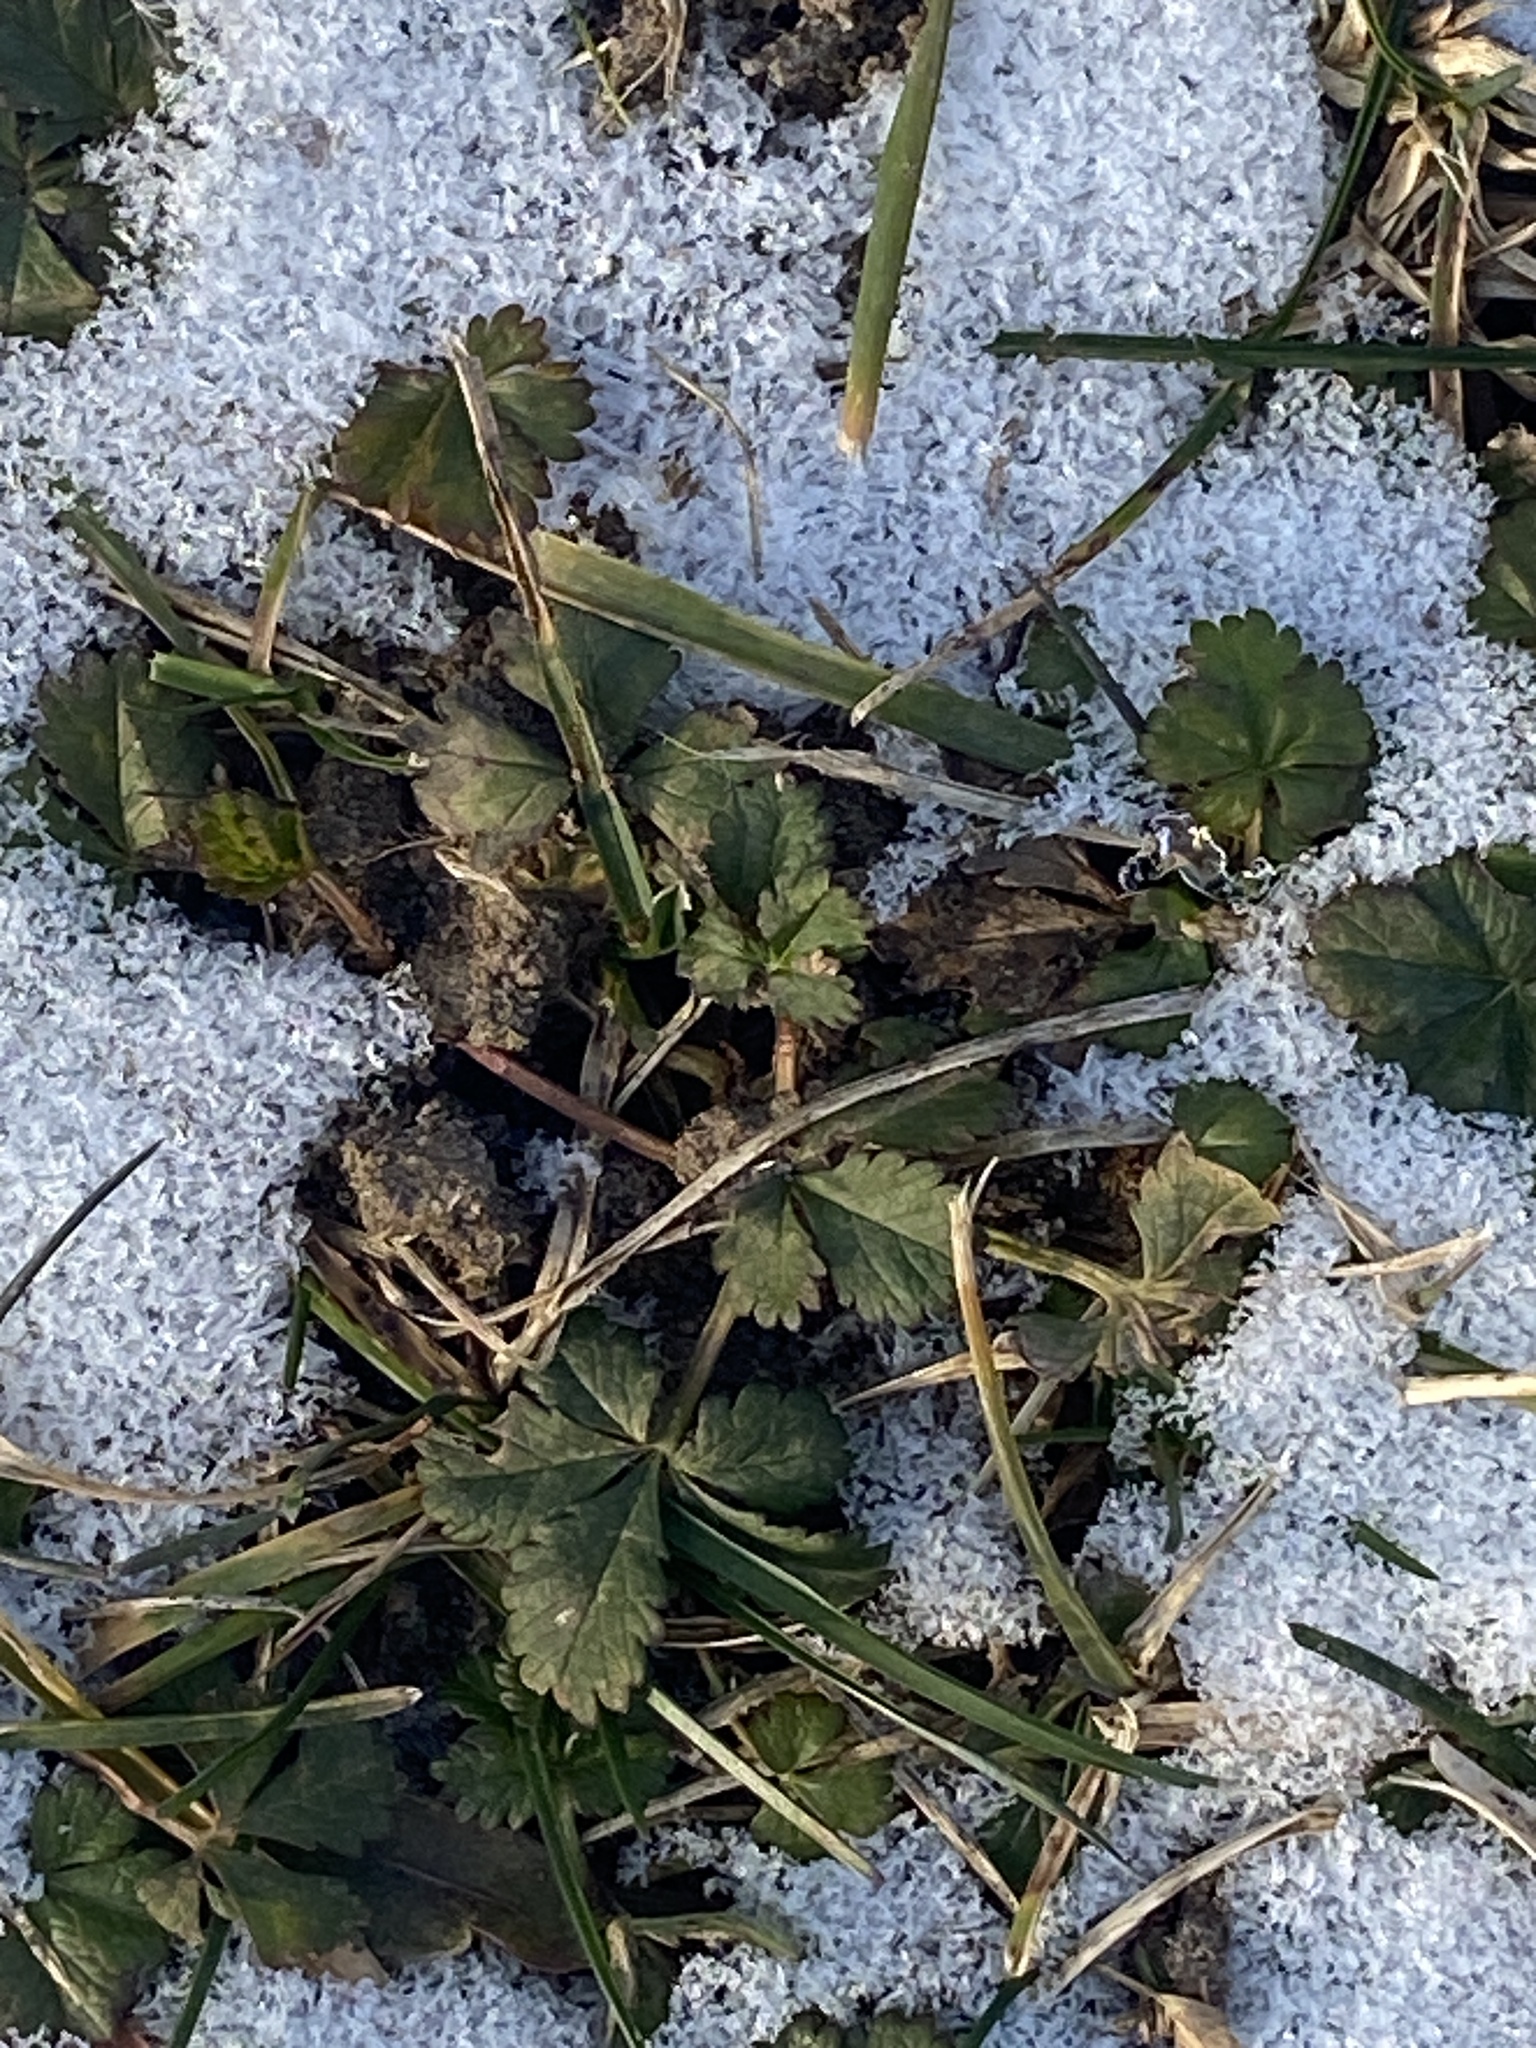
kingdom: Plantae
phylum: Tracheophyta
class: Magnoliopsida
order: Rosales
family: Rosaceae
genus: Potentilla
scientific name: Potentilla reptans
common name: Creeping cinquefoil
